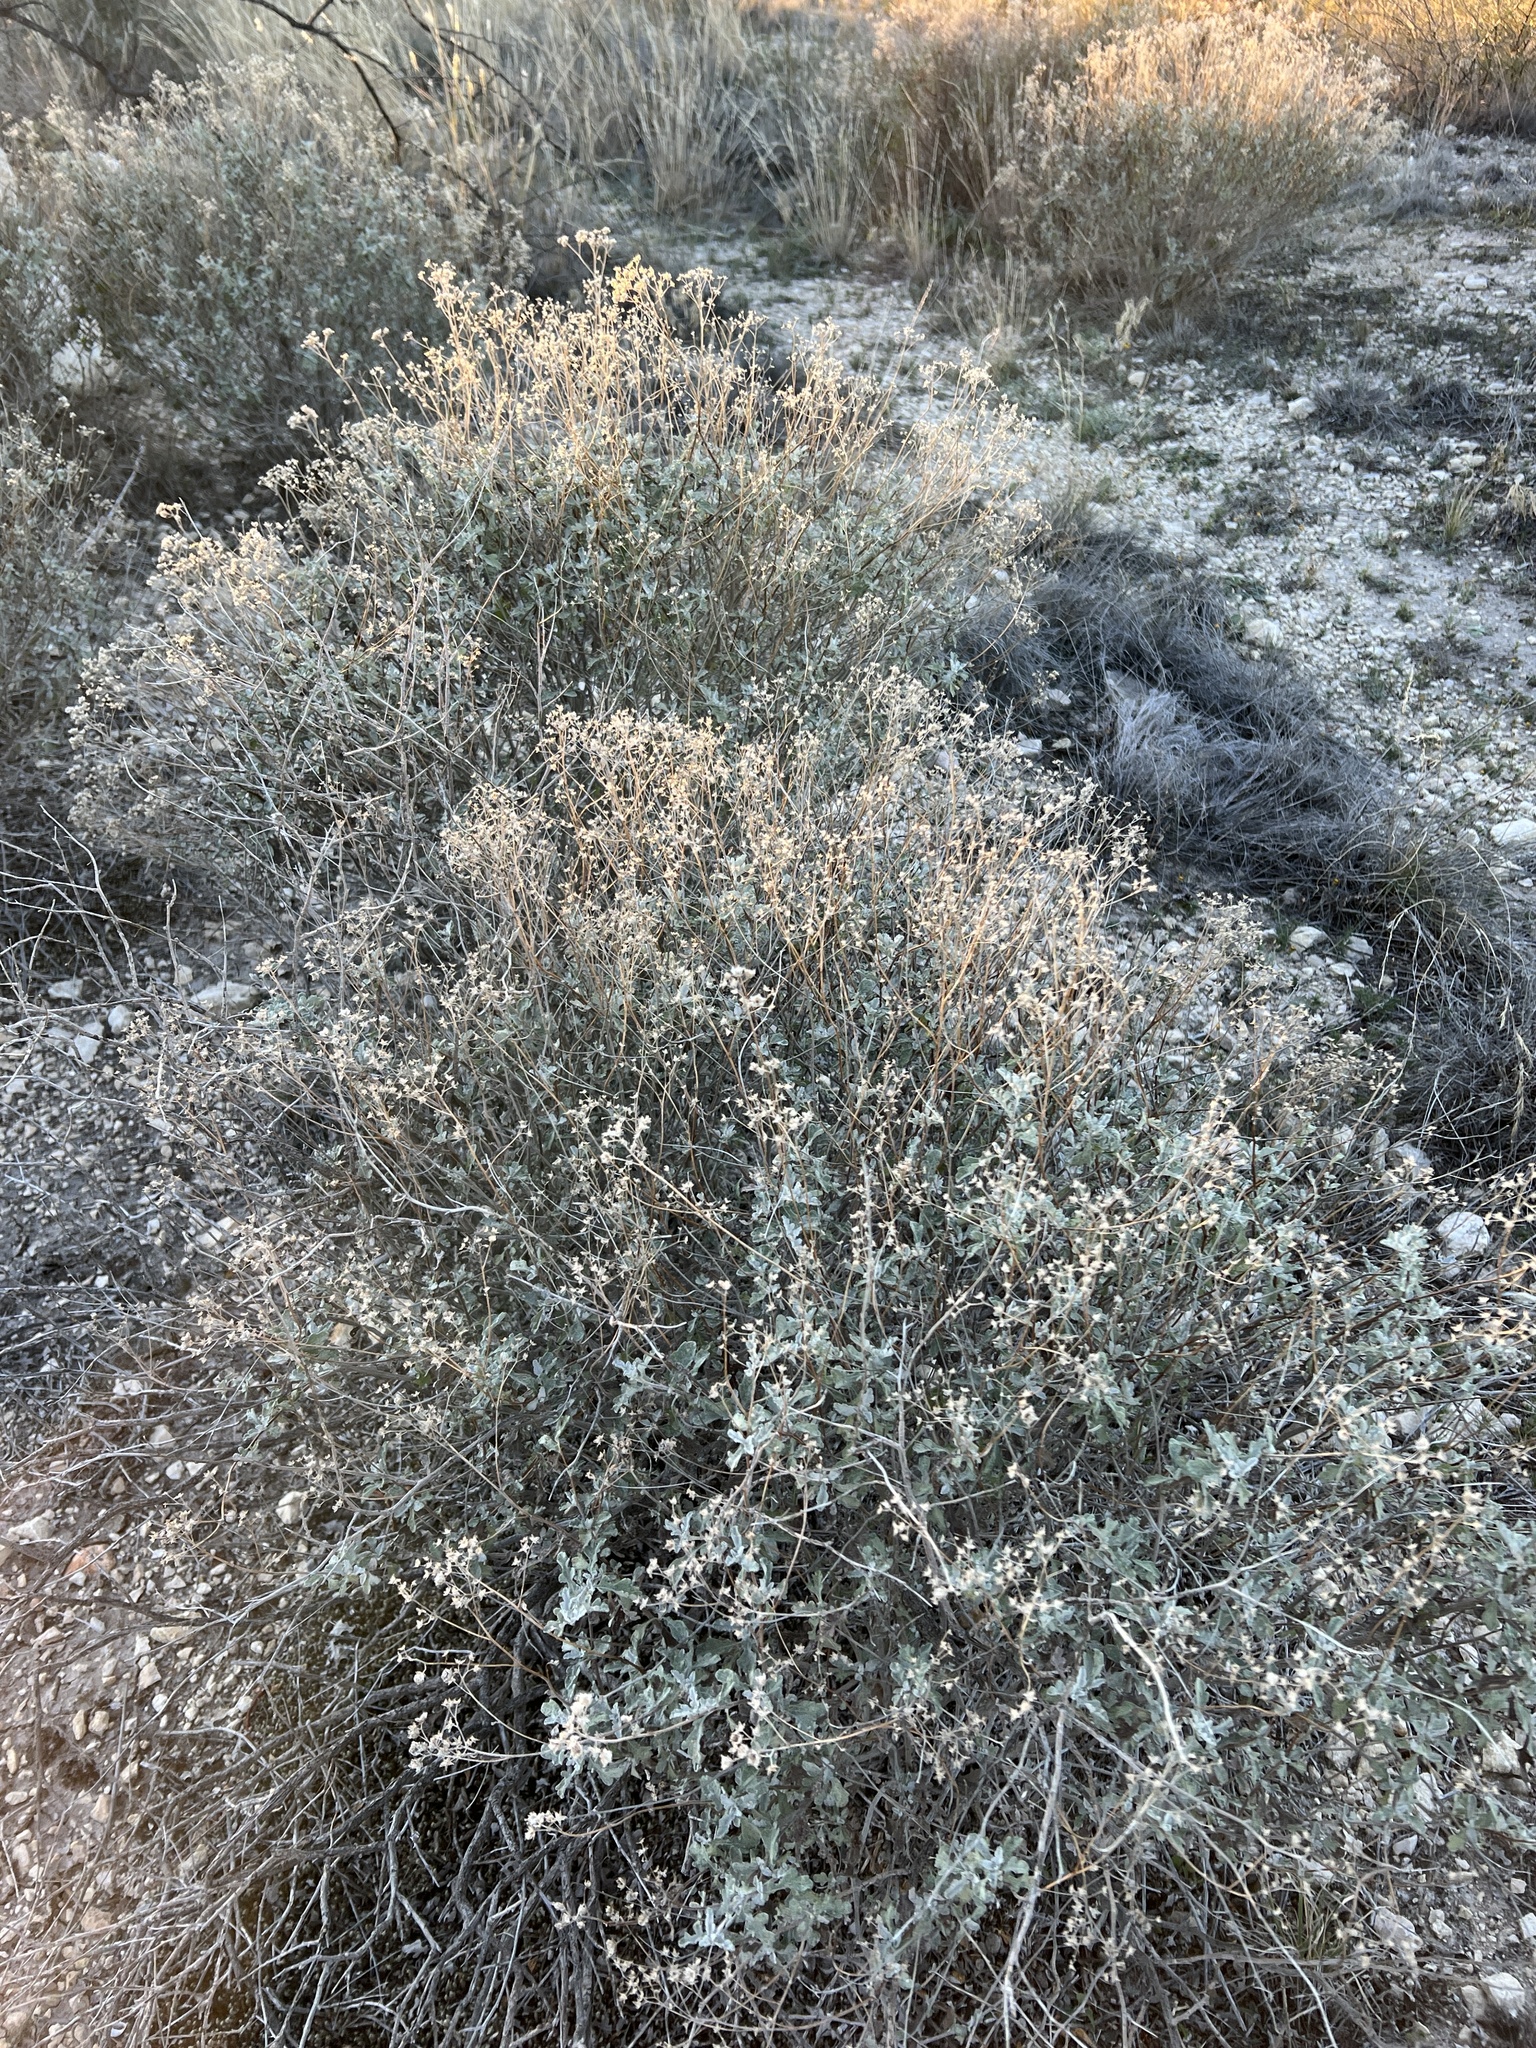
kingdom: Plantae
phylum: Tracheophyta
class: Magnoliopsida
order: Asterales
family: Asteraceae
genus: Parthenium
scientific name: Parthenium incanum
